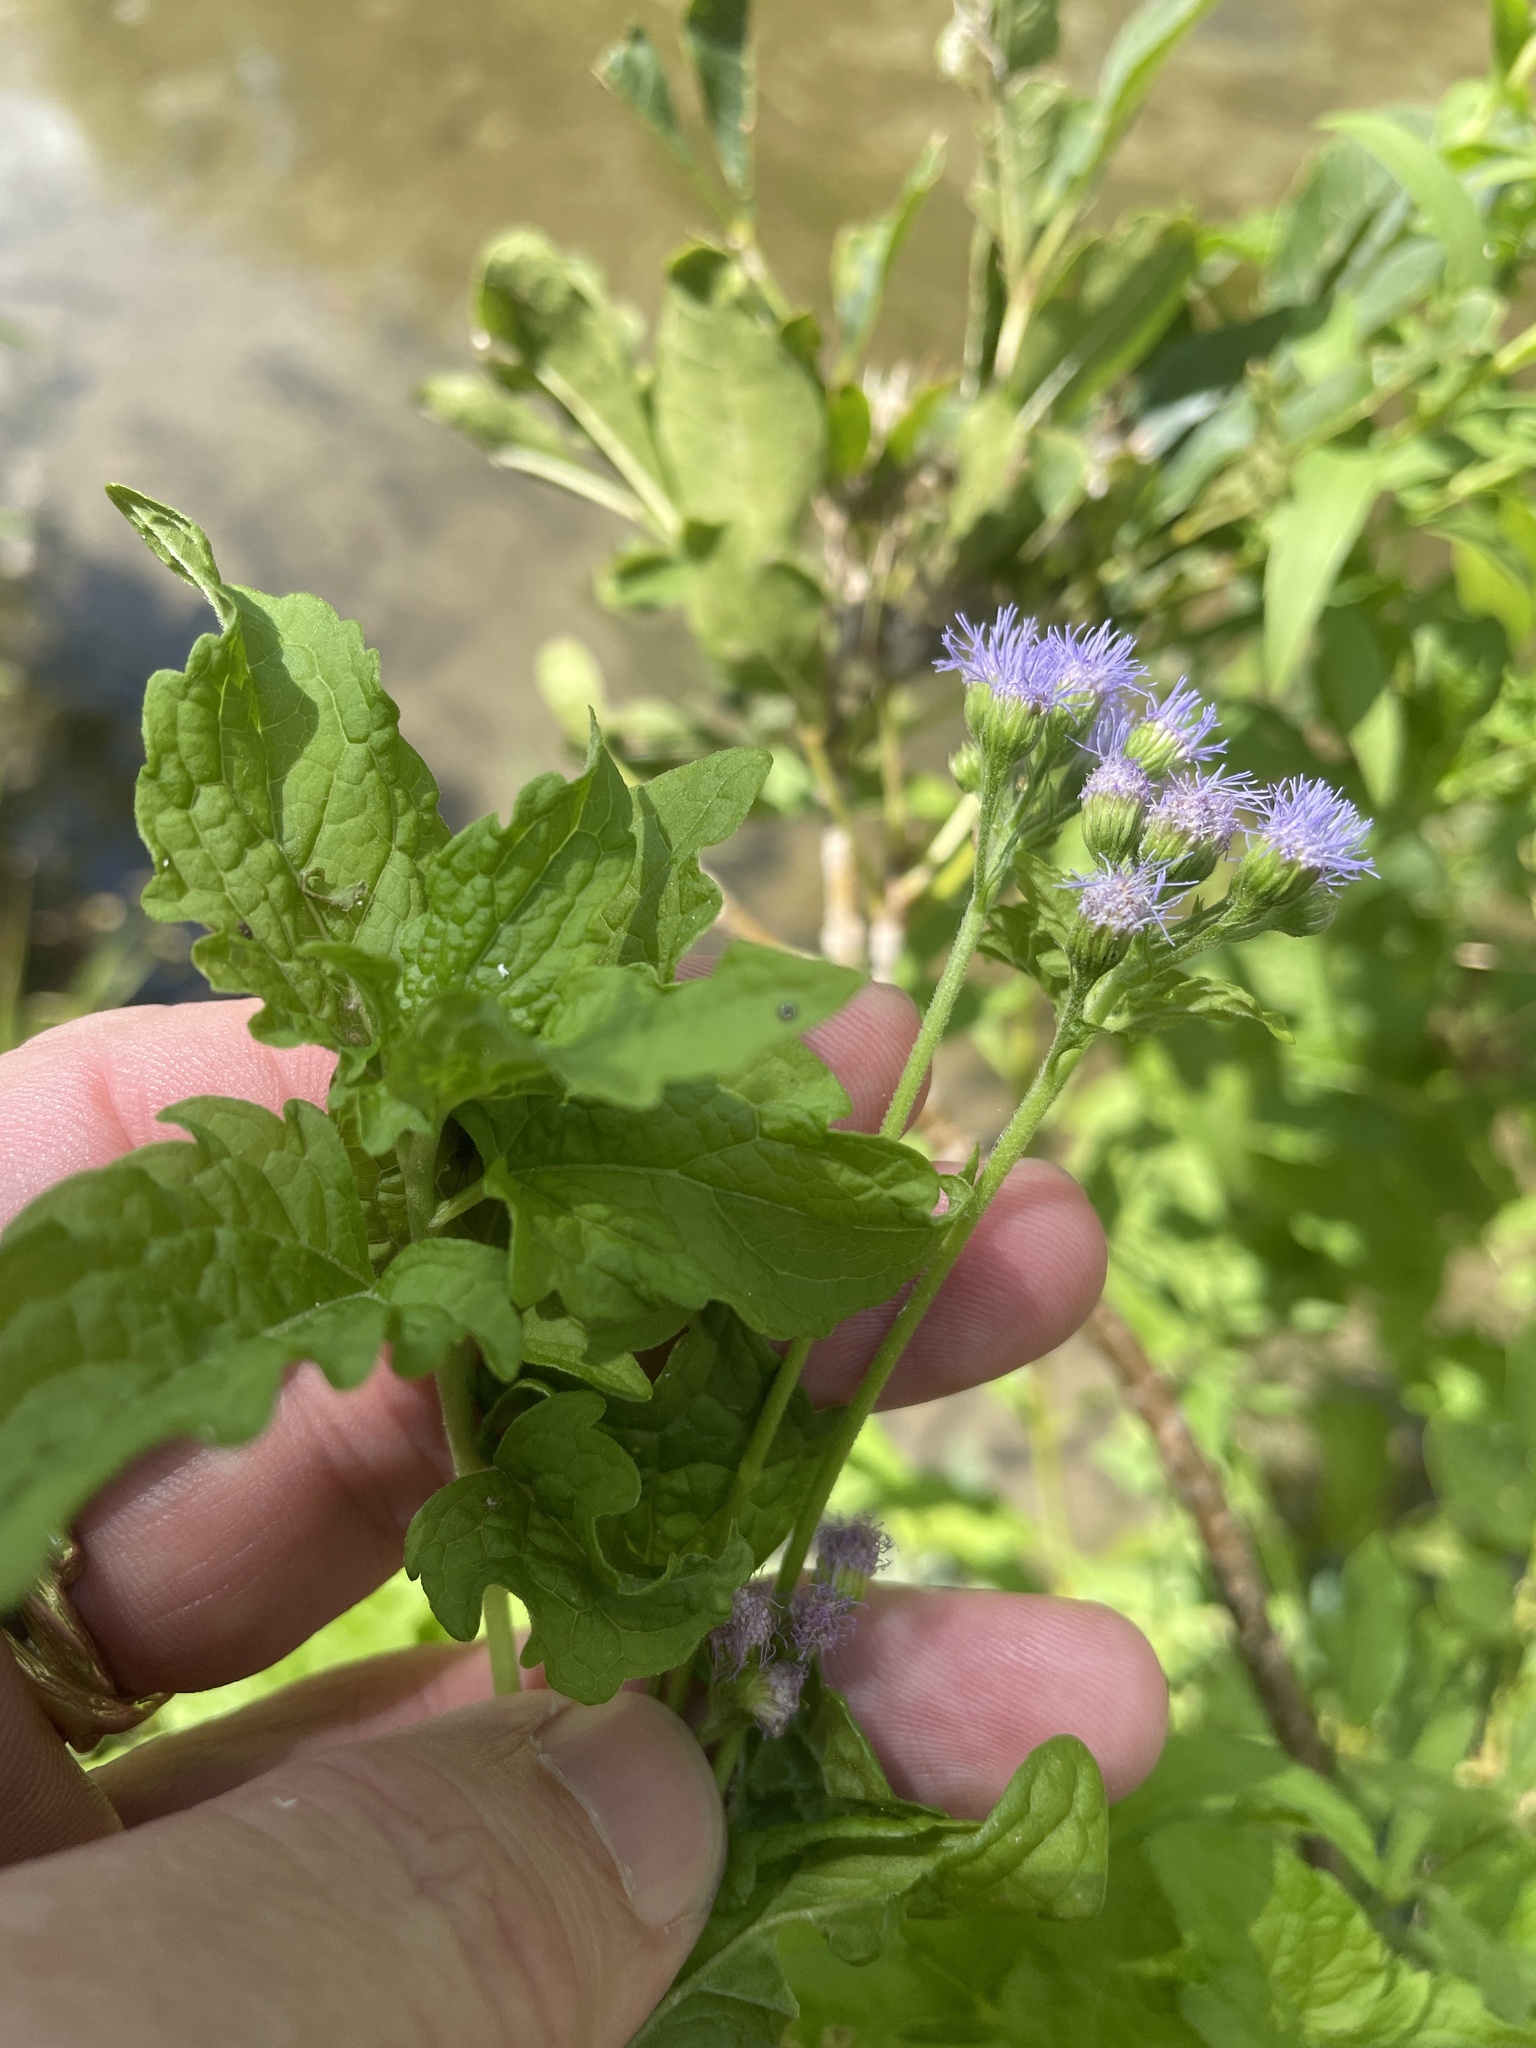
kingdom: Plantae
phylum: Tracheophyta
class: Magnoliopsida
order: Asterales
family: Asteraceae
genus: Conoclinium
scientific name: Conoclinium coelestinum
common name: Blue mistflower
